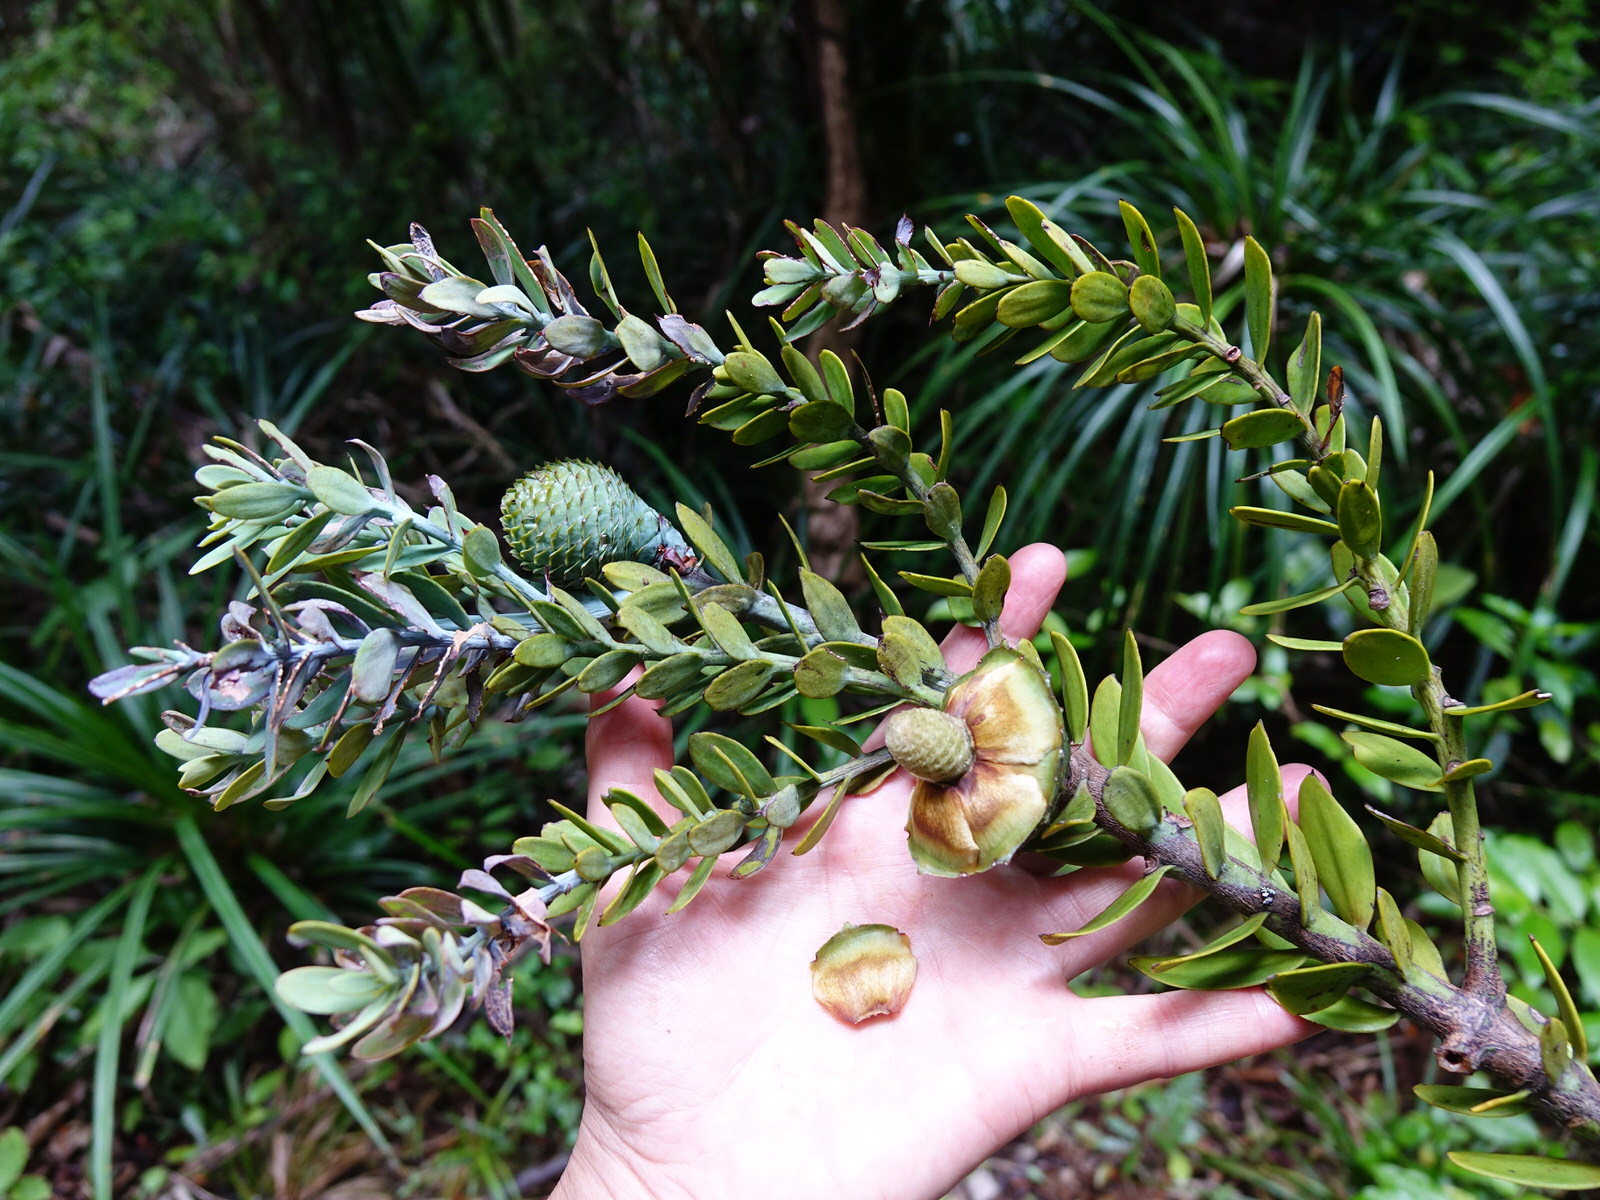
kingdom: Plantae
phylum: Tracheophyta
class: Pinopsida
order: Pinales
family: Araucariaceae
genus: Agathis
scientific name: Agathis australis
